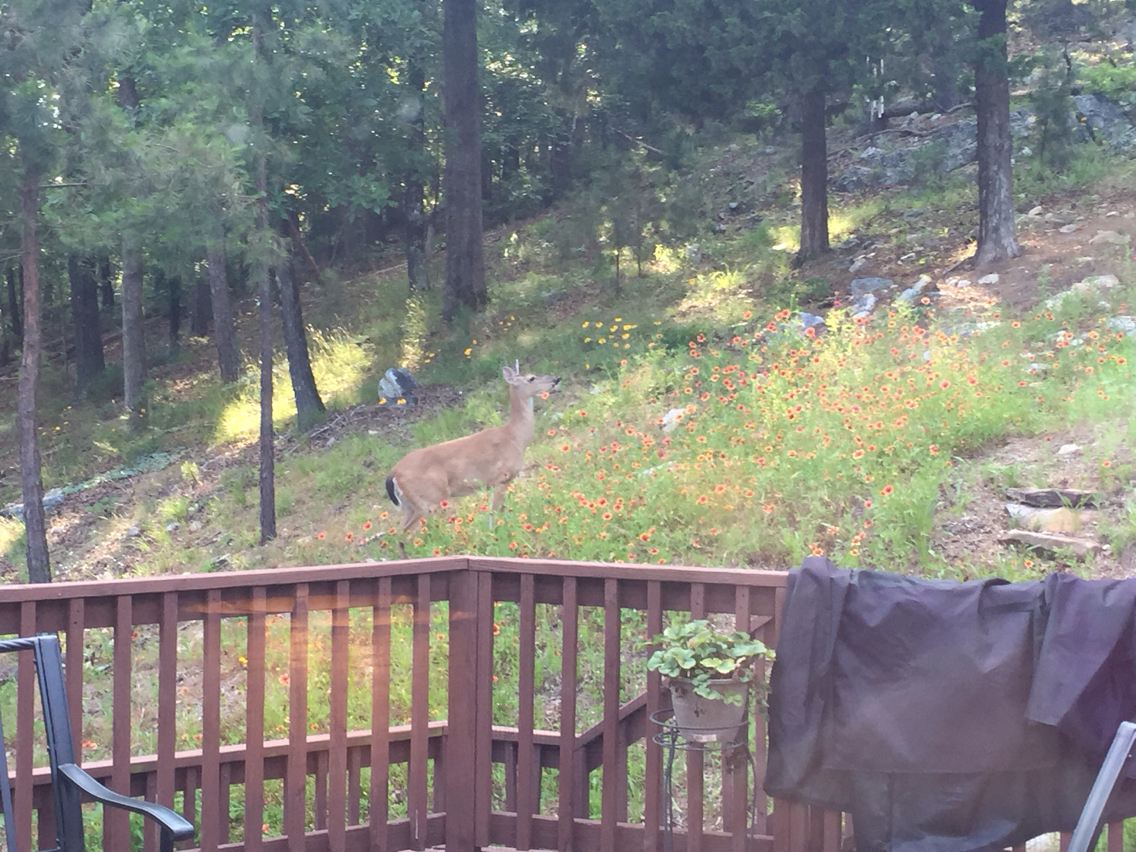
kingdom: Animalia
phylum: Chordata
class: Mammalia
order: Artiodactyla
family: Cervidae
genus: Odocoileus
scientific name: Odocoileus virginianus
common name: White-tailed deer
